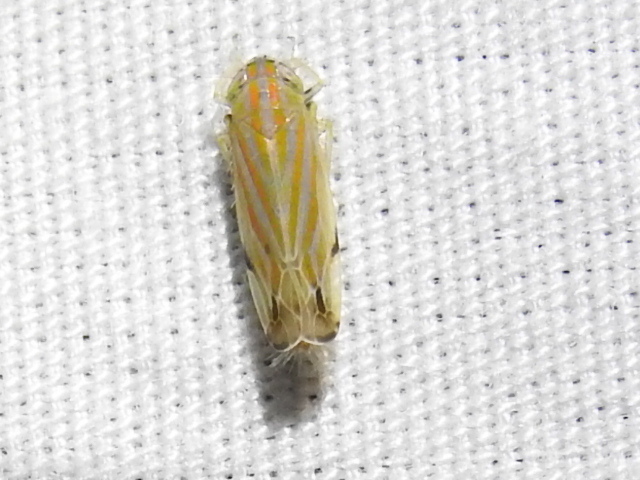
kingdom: Animalia
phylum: Arthropoda
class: Insecta
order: Hemiptera
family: Cicadellidae
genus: Deltanus
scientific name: Deltanus texanus
